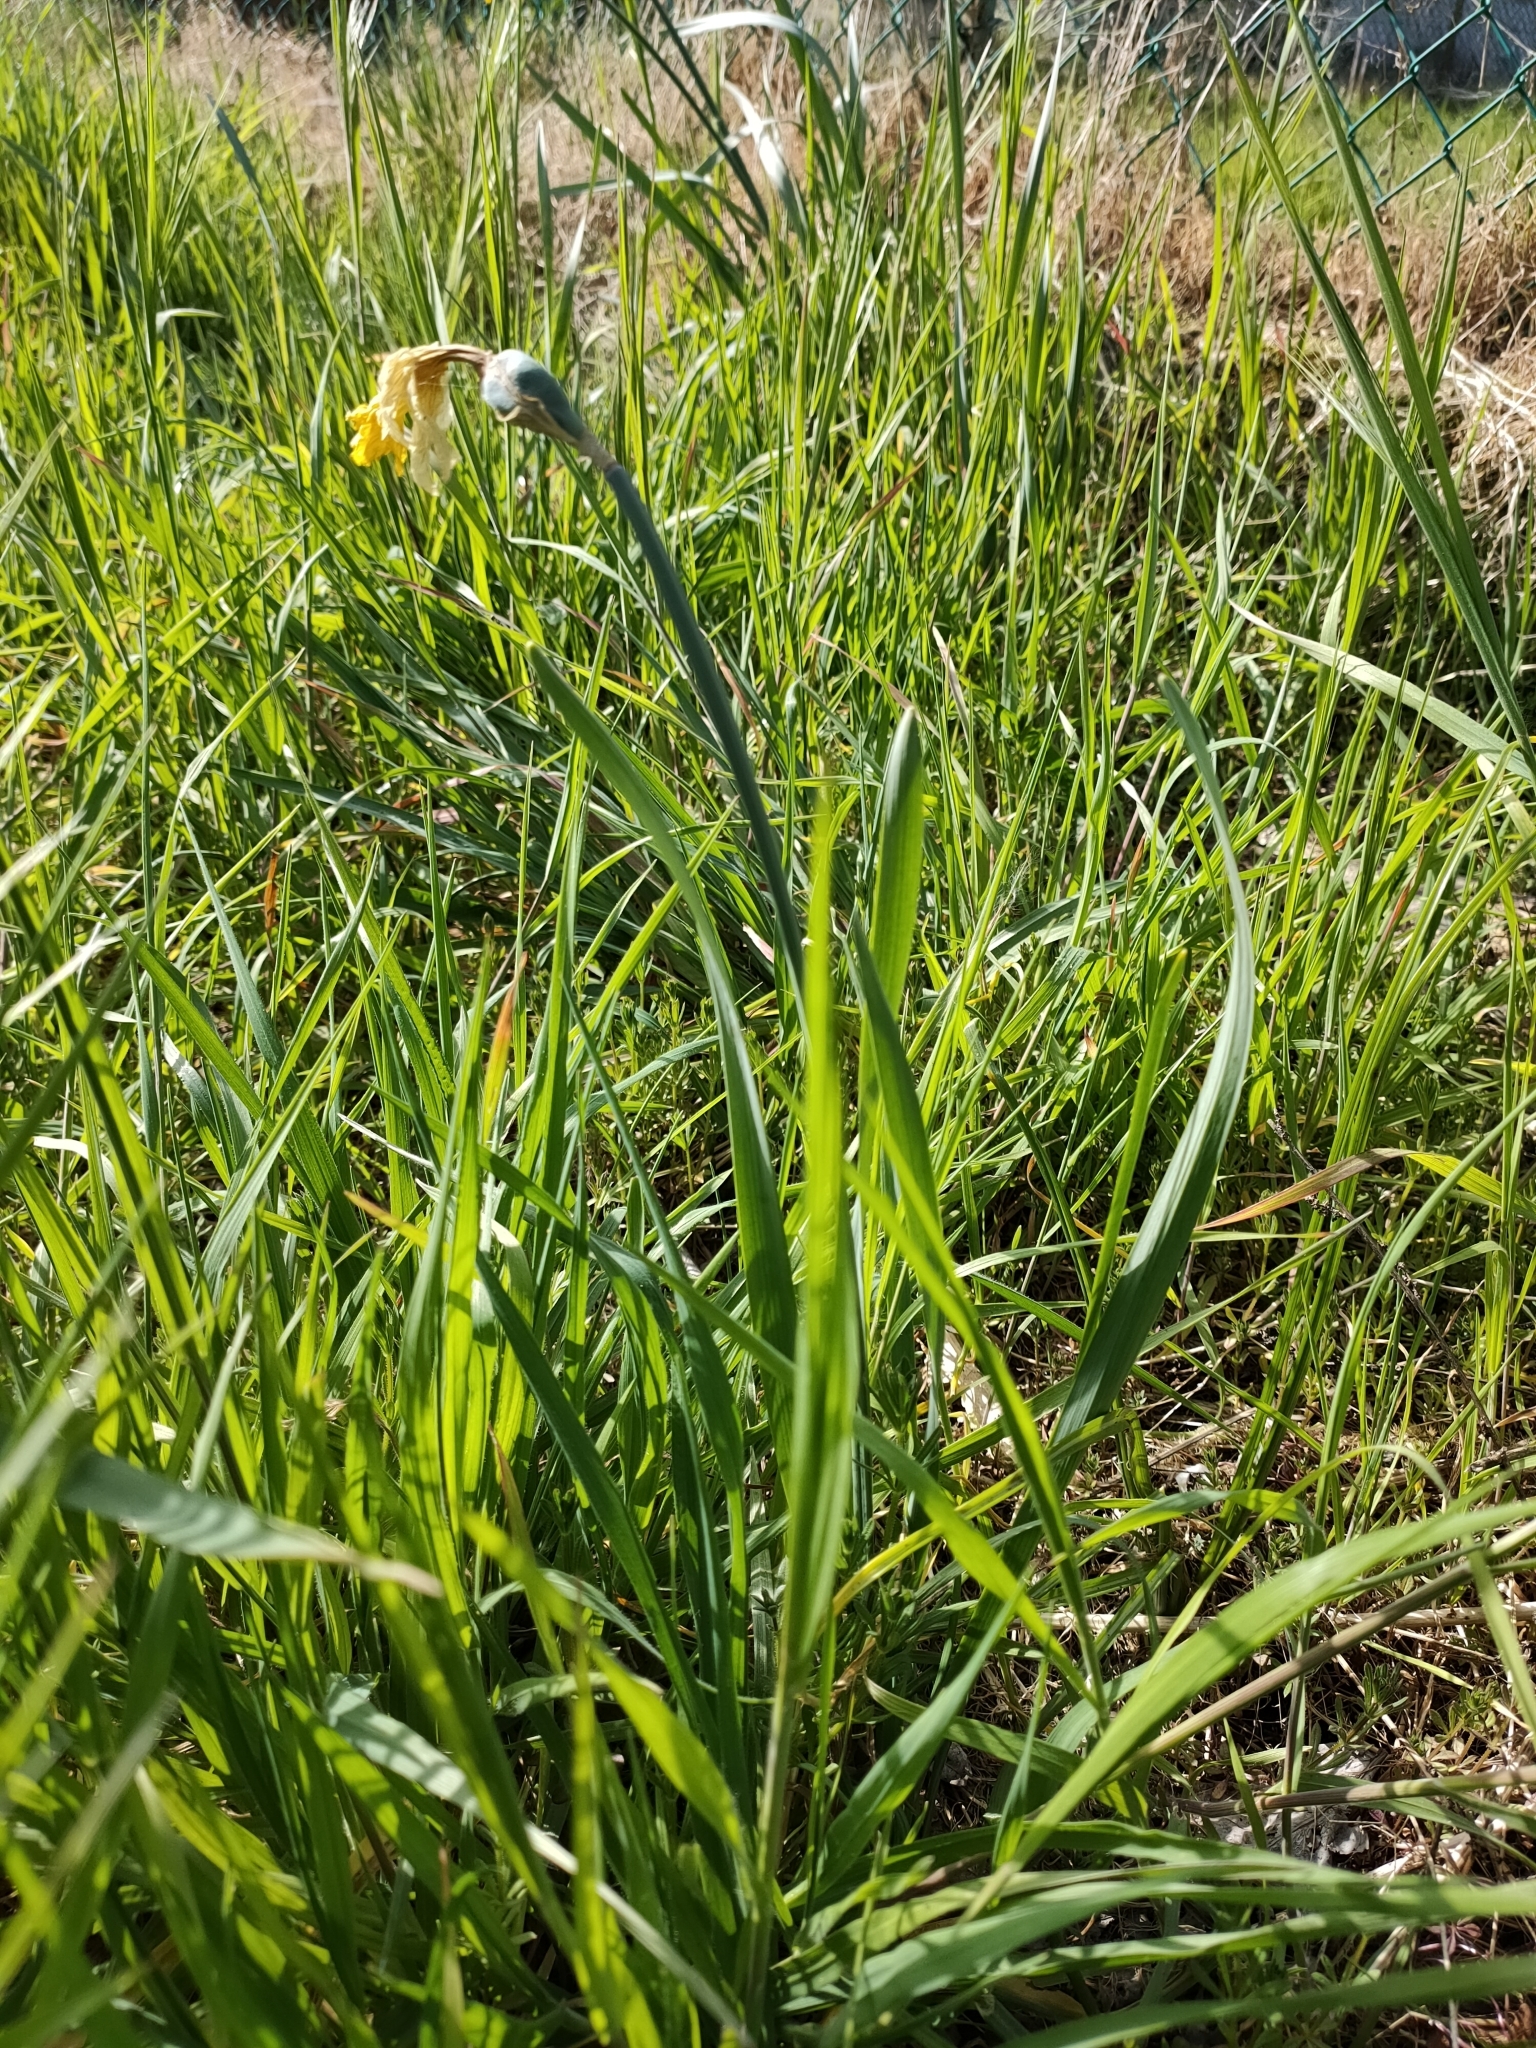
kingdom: Plantae
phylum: Tracheophyta
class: Liliopsida
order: Asparagales
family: Amaryllidaceae
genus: Narcissus
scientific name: Narcissus pseudonarcissus
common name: Daffodil
